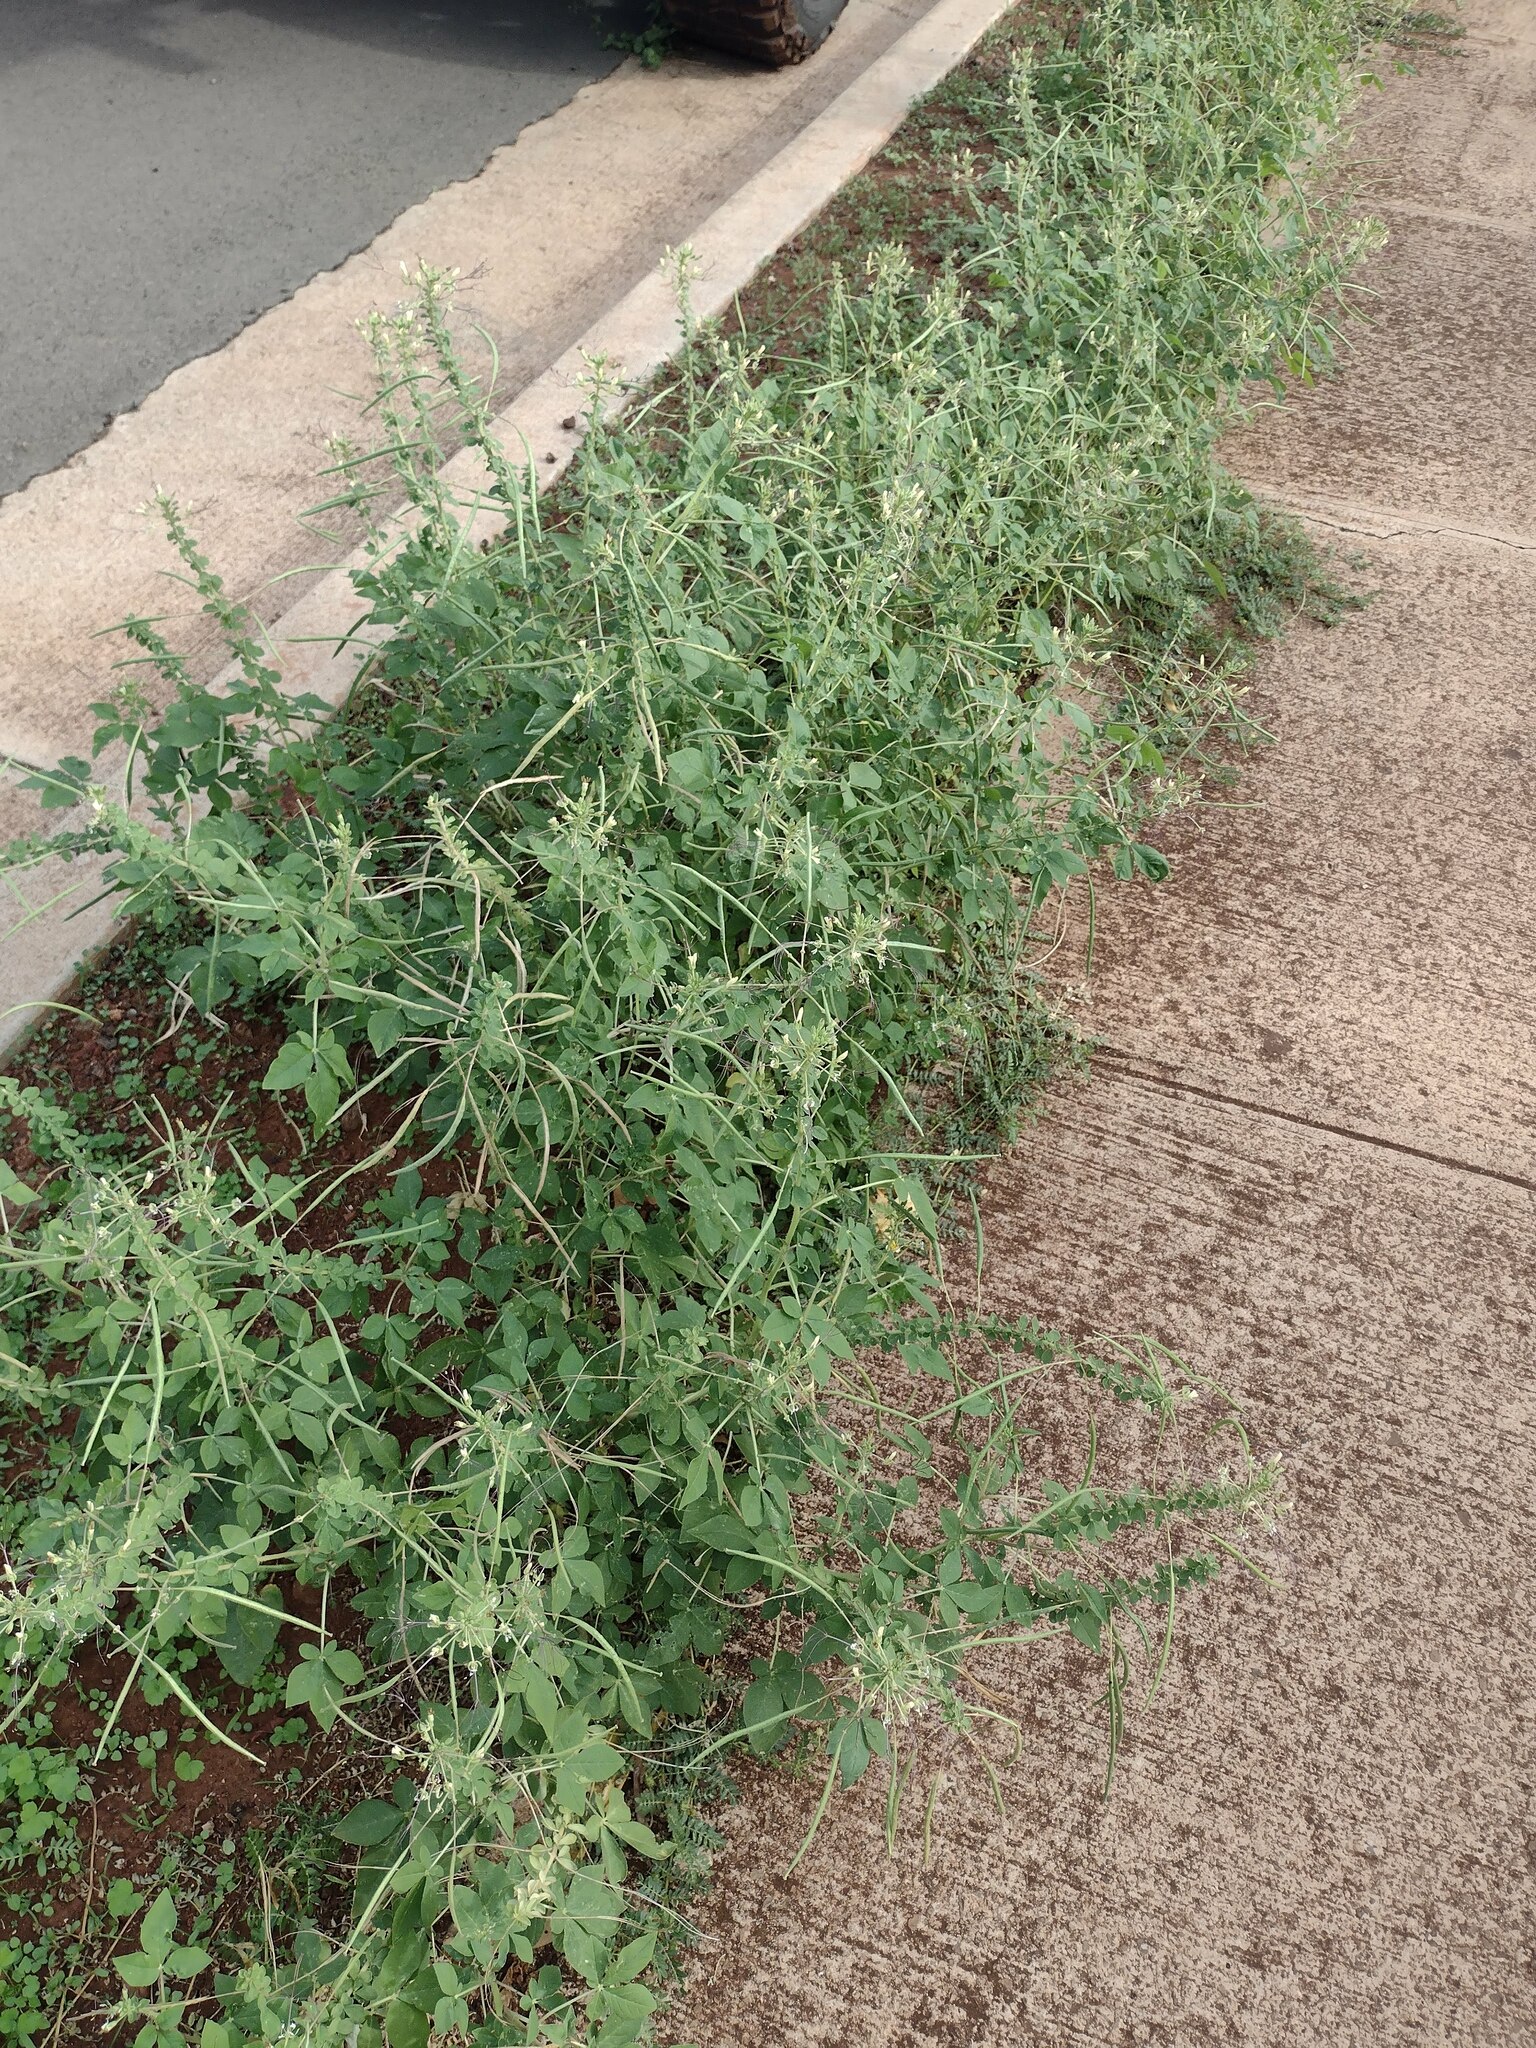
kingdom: Plantae
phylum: Tracheophyta
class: Magnoliopsida
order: Brassicales
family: Cleomaceae
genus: Gynandropsis
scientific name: Gynandropsis gynandra
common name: Spiderwisp
